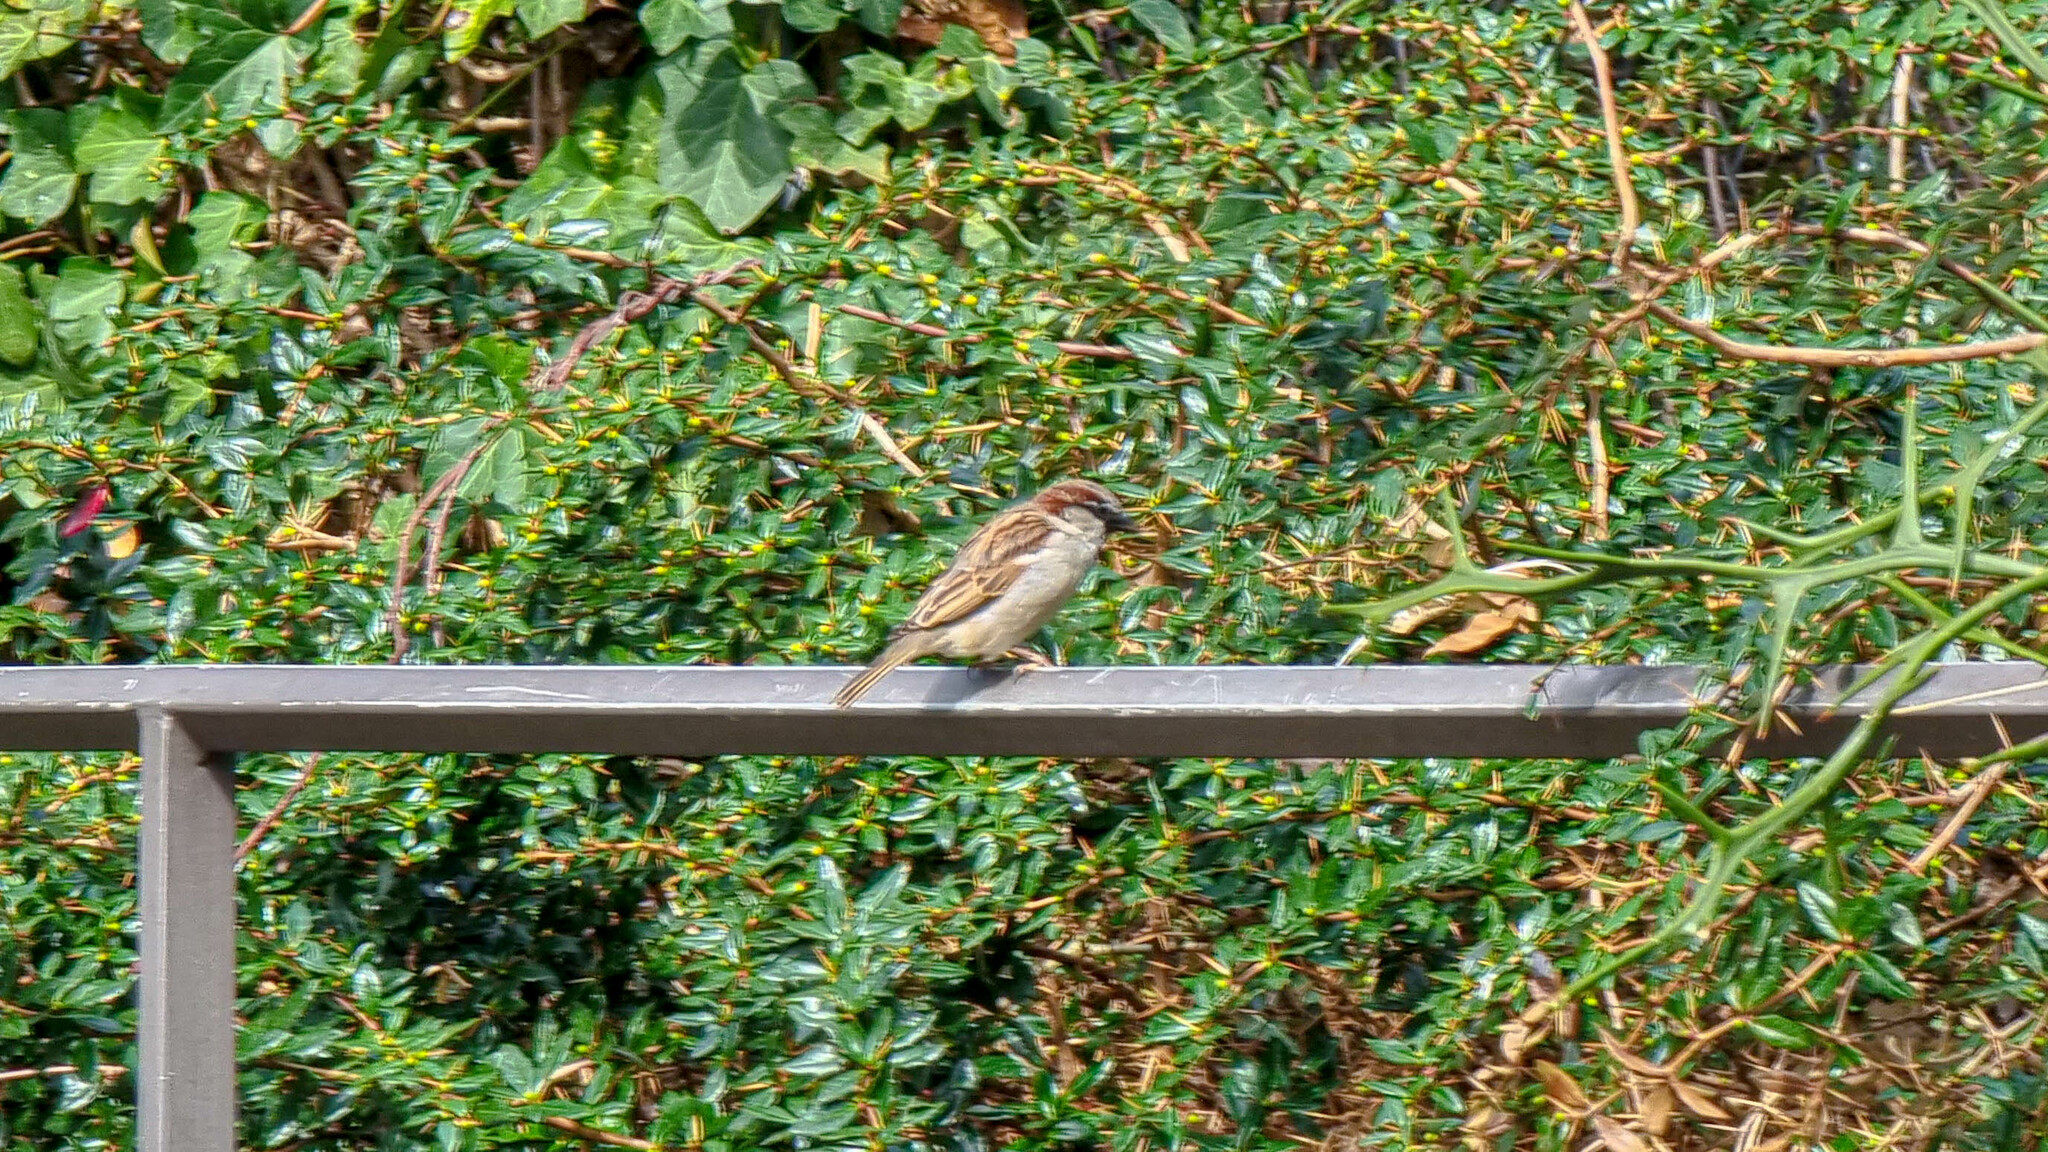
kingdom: Animalia
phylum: Chordata
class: Aves
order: Passeriformes
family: Passeridae
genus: Passer
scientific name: Passer domesticus
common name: House sparrow
